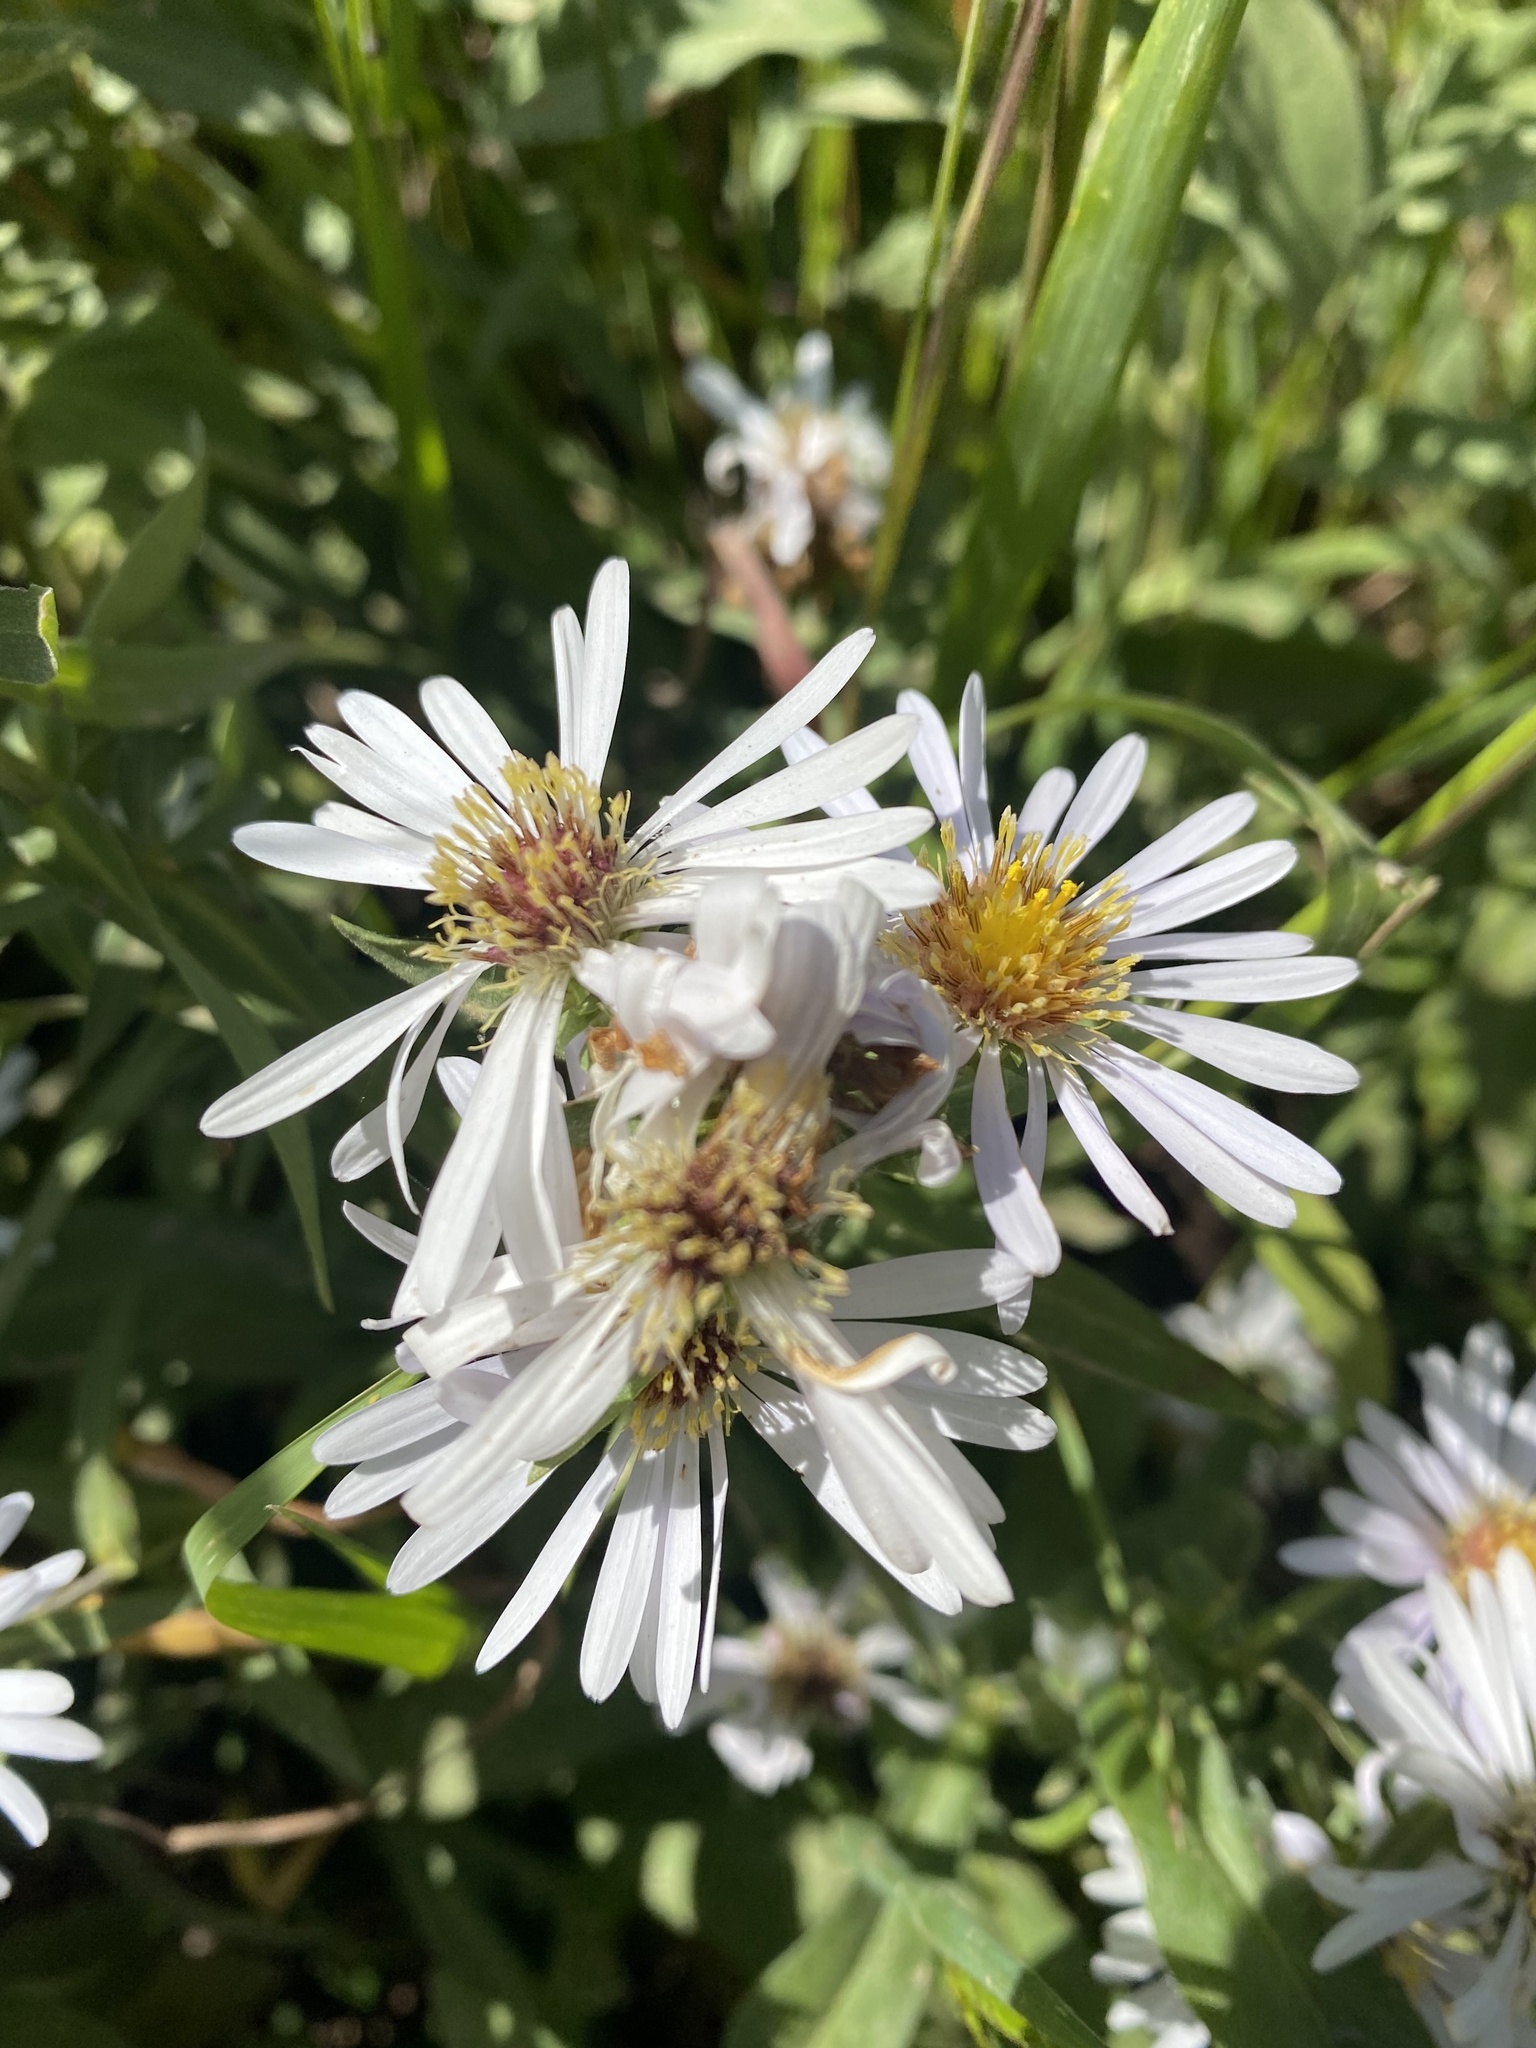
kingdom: Plantae
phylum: Tracheophyta
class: Magnoliopsida
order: Asterales
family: Asteraceae
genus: Symphyotrichum
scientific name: Symphyotrichum chilense
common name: Pacific aster
